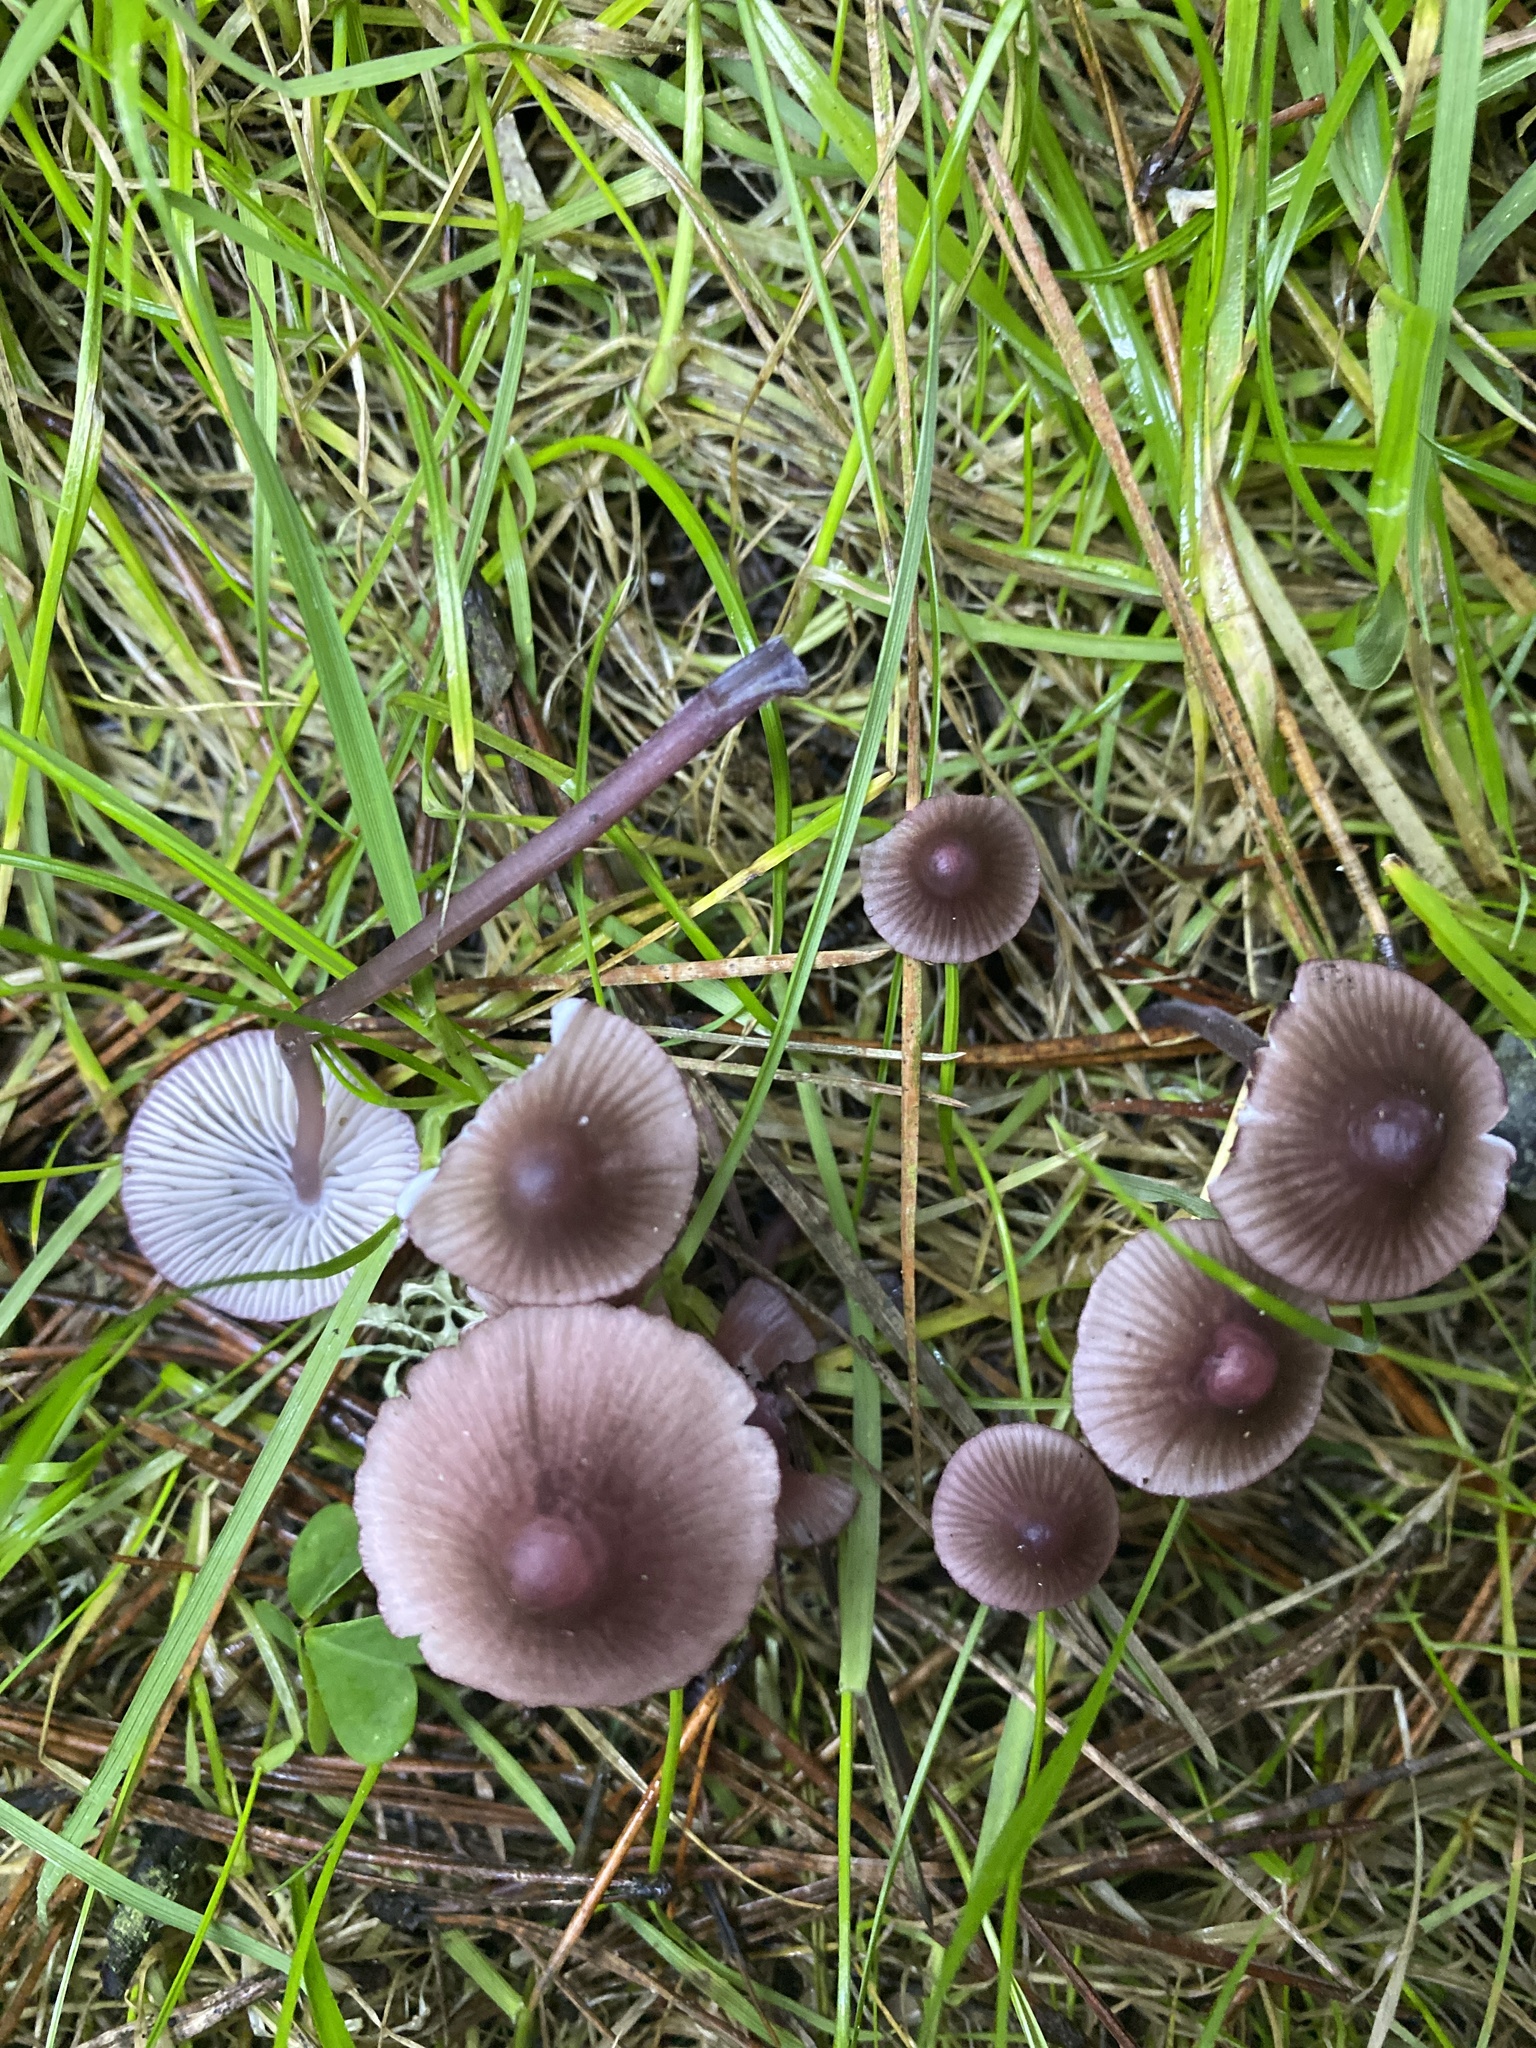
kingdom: Fungi
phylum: Basidiomycota
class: Agaricomycetes
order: Agaricales
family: Mycenaceae
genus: Mycena
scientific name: Mycena leptocephala
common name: Nitrous bonnet
